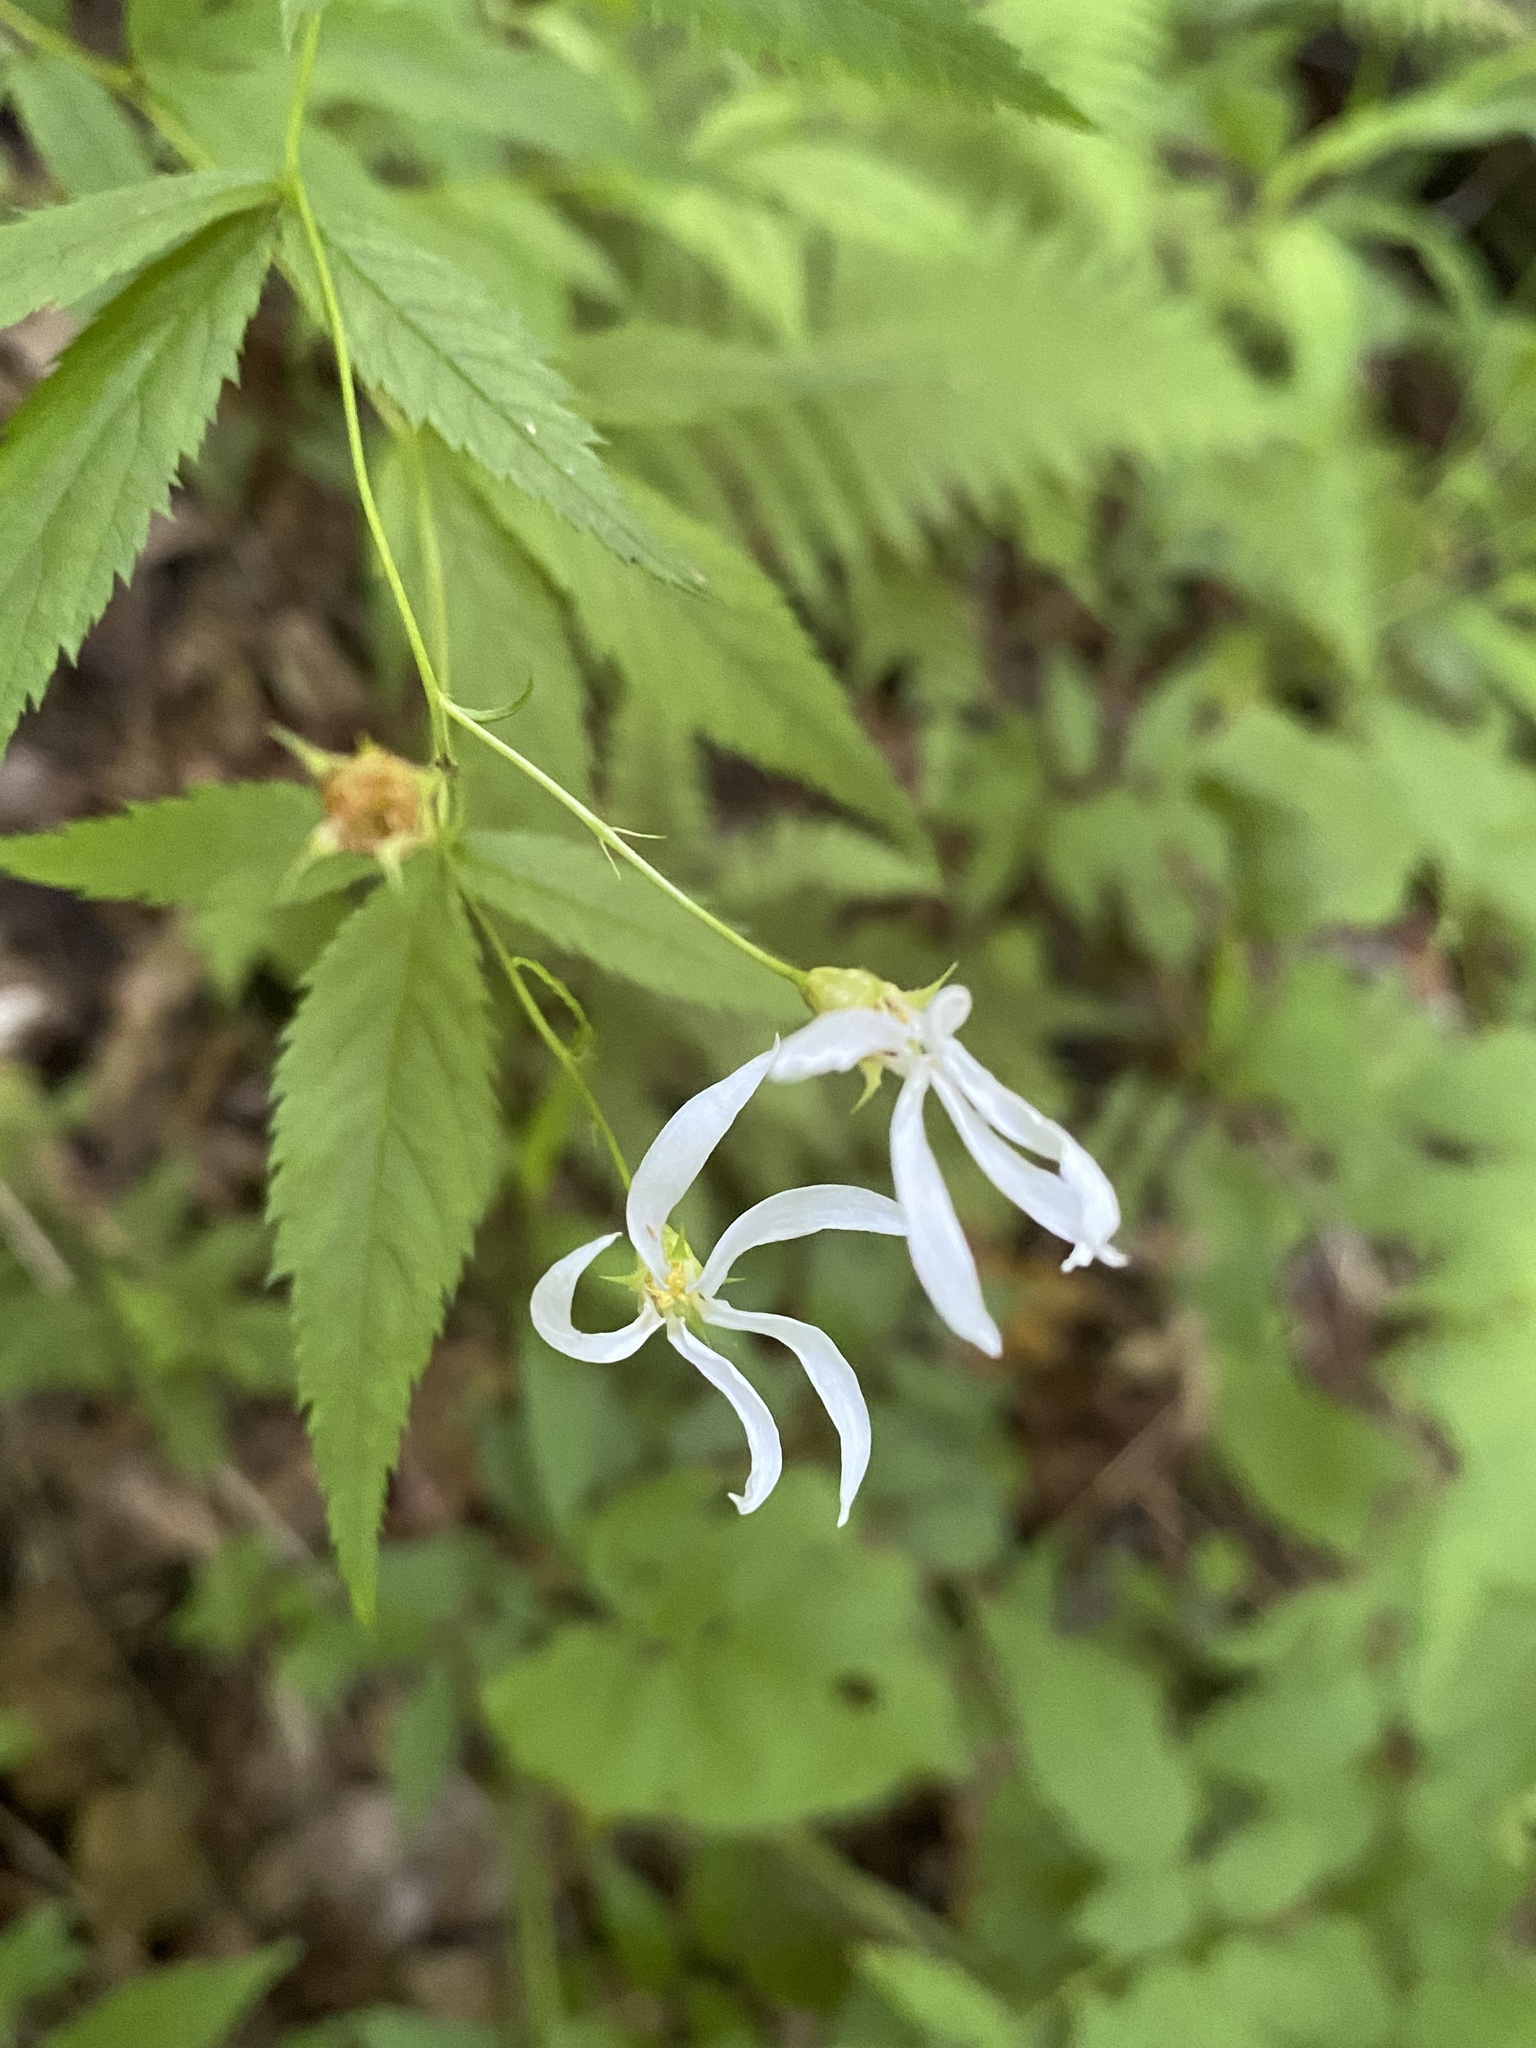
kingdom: Plantae
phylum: Tracheophyta
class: Magnoliopsida
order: Rosales
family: Rosaceae
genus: Gillenia
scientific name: Gillenia trifoliata
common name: Bowman's-root
